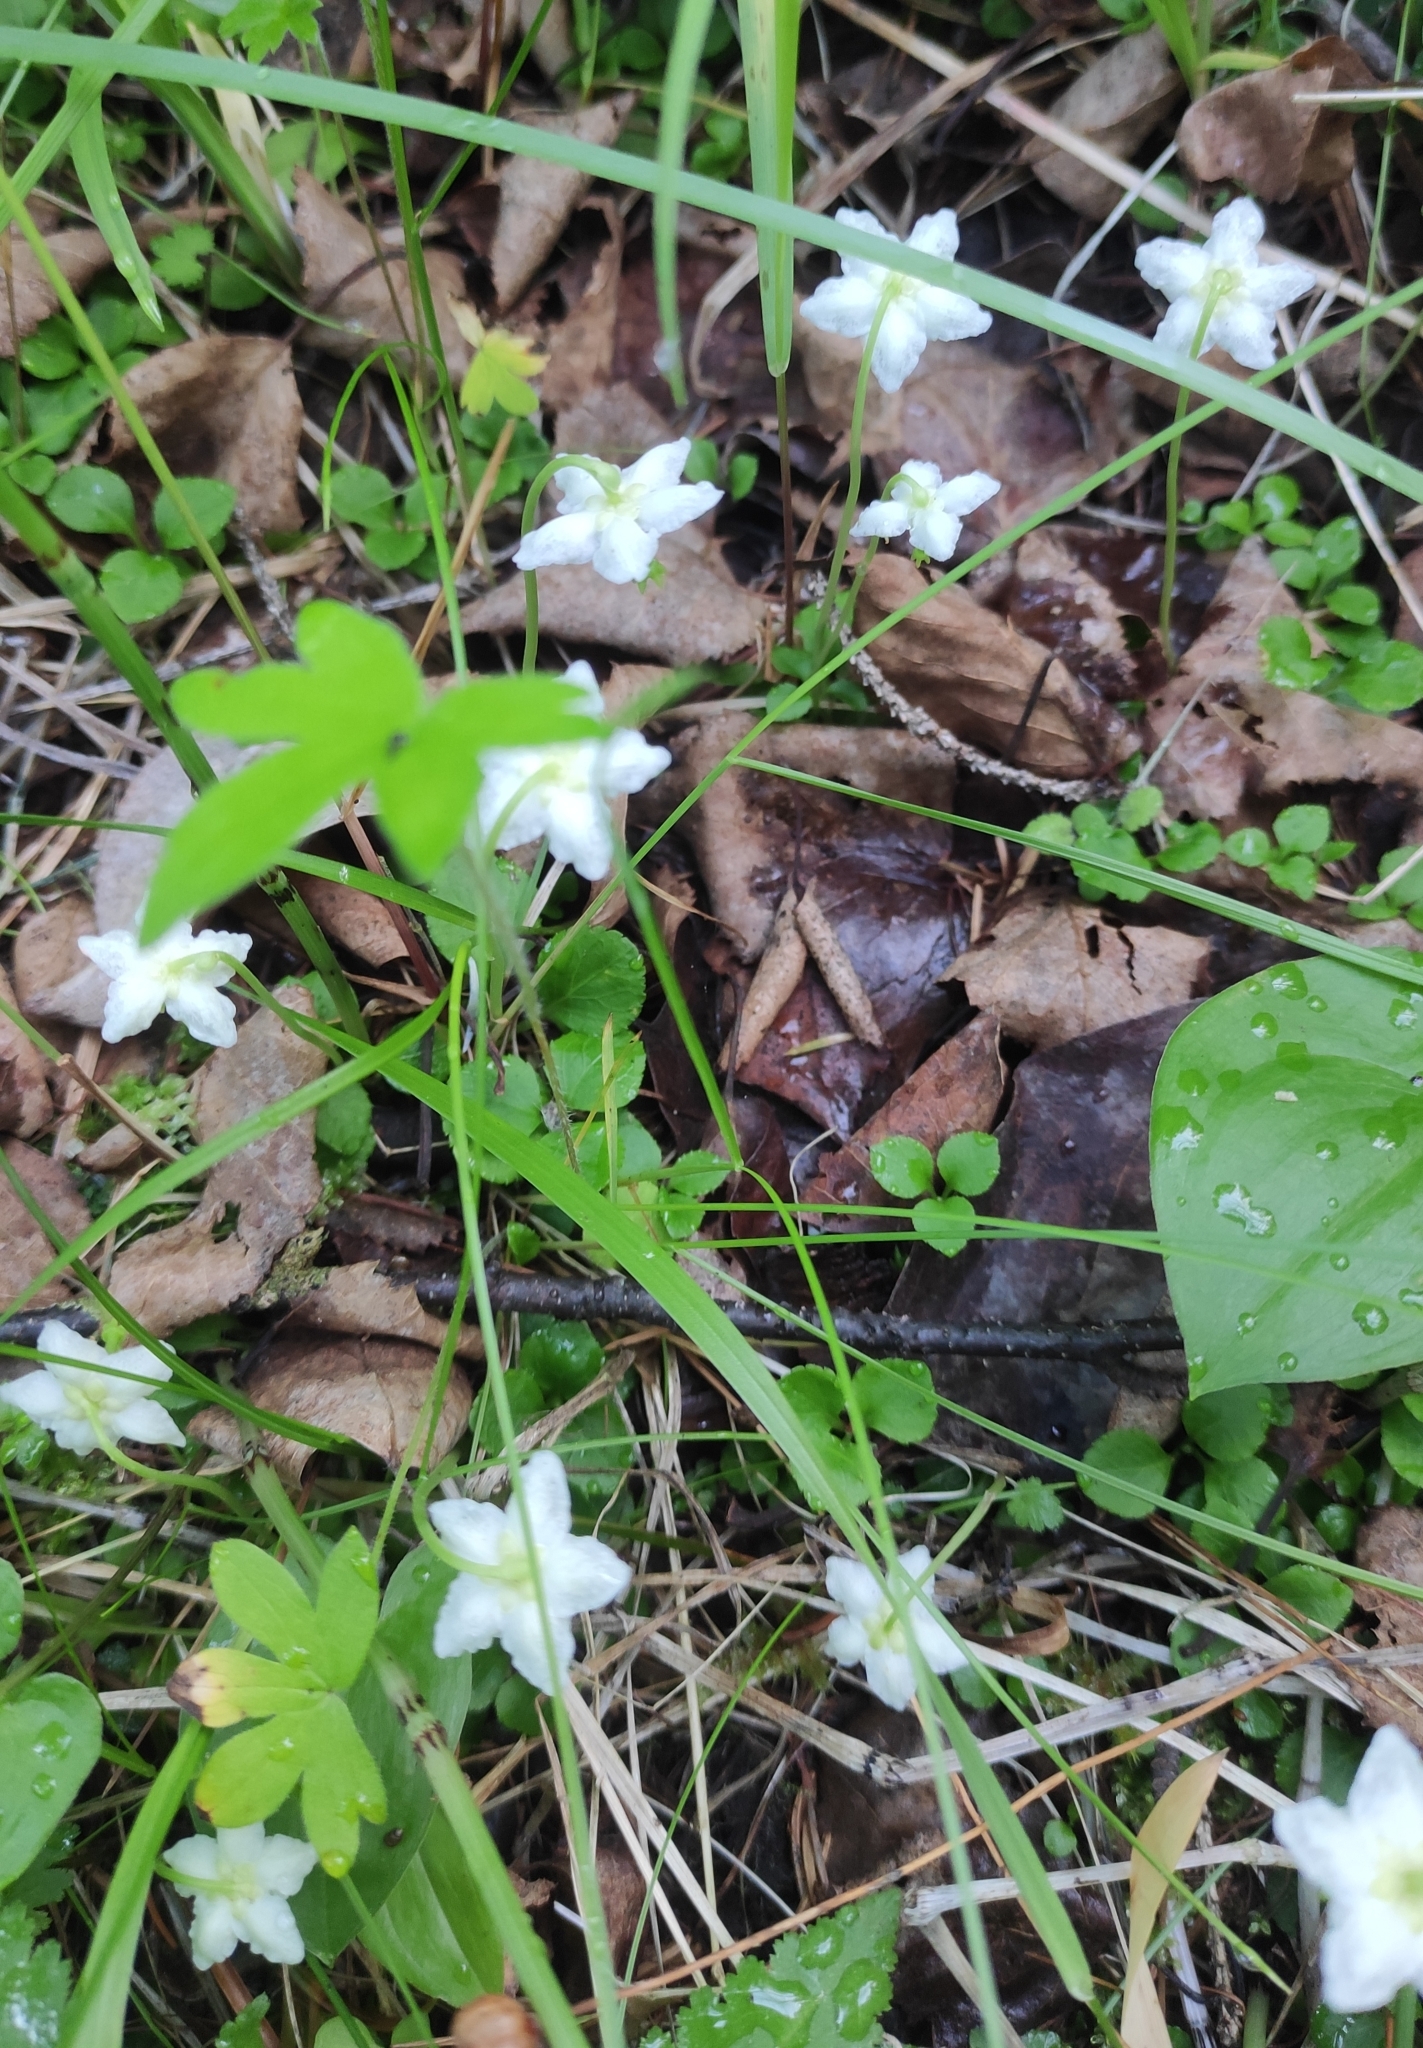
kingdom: Plantae
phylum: Tracheophyta
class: Magnoliopsida
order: Ericales
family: Ericaceae
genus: Moneses
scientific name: Moneses uniflora
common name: One-flowered wintergreen
